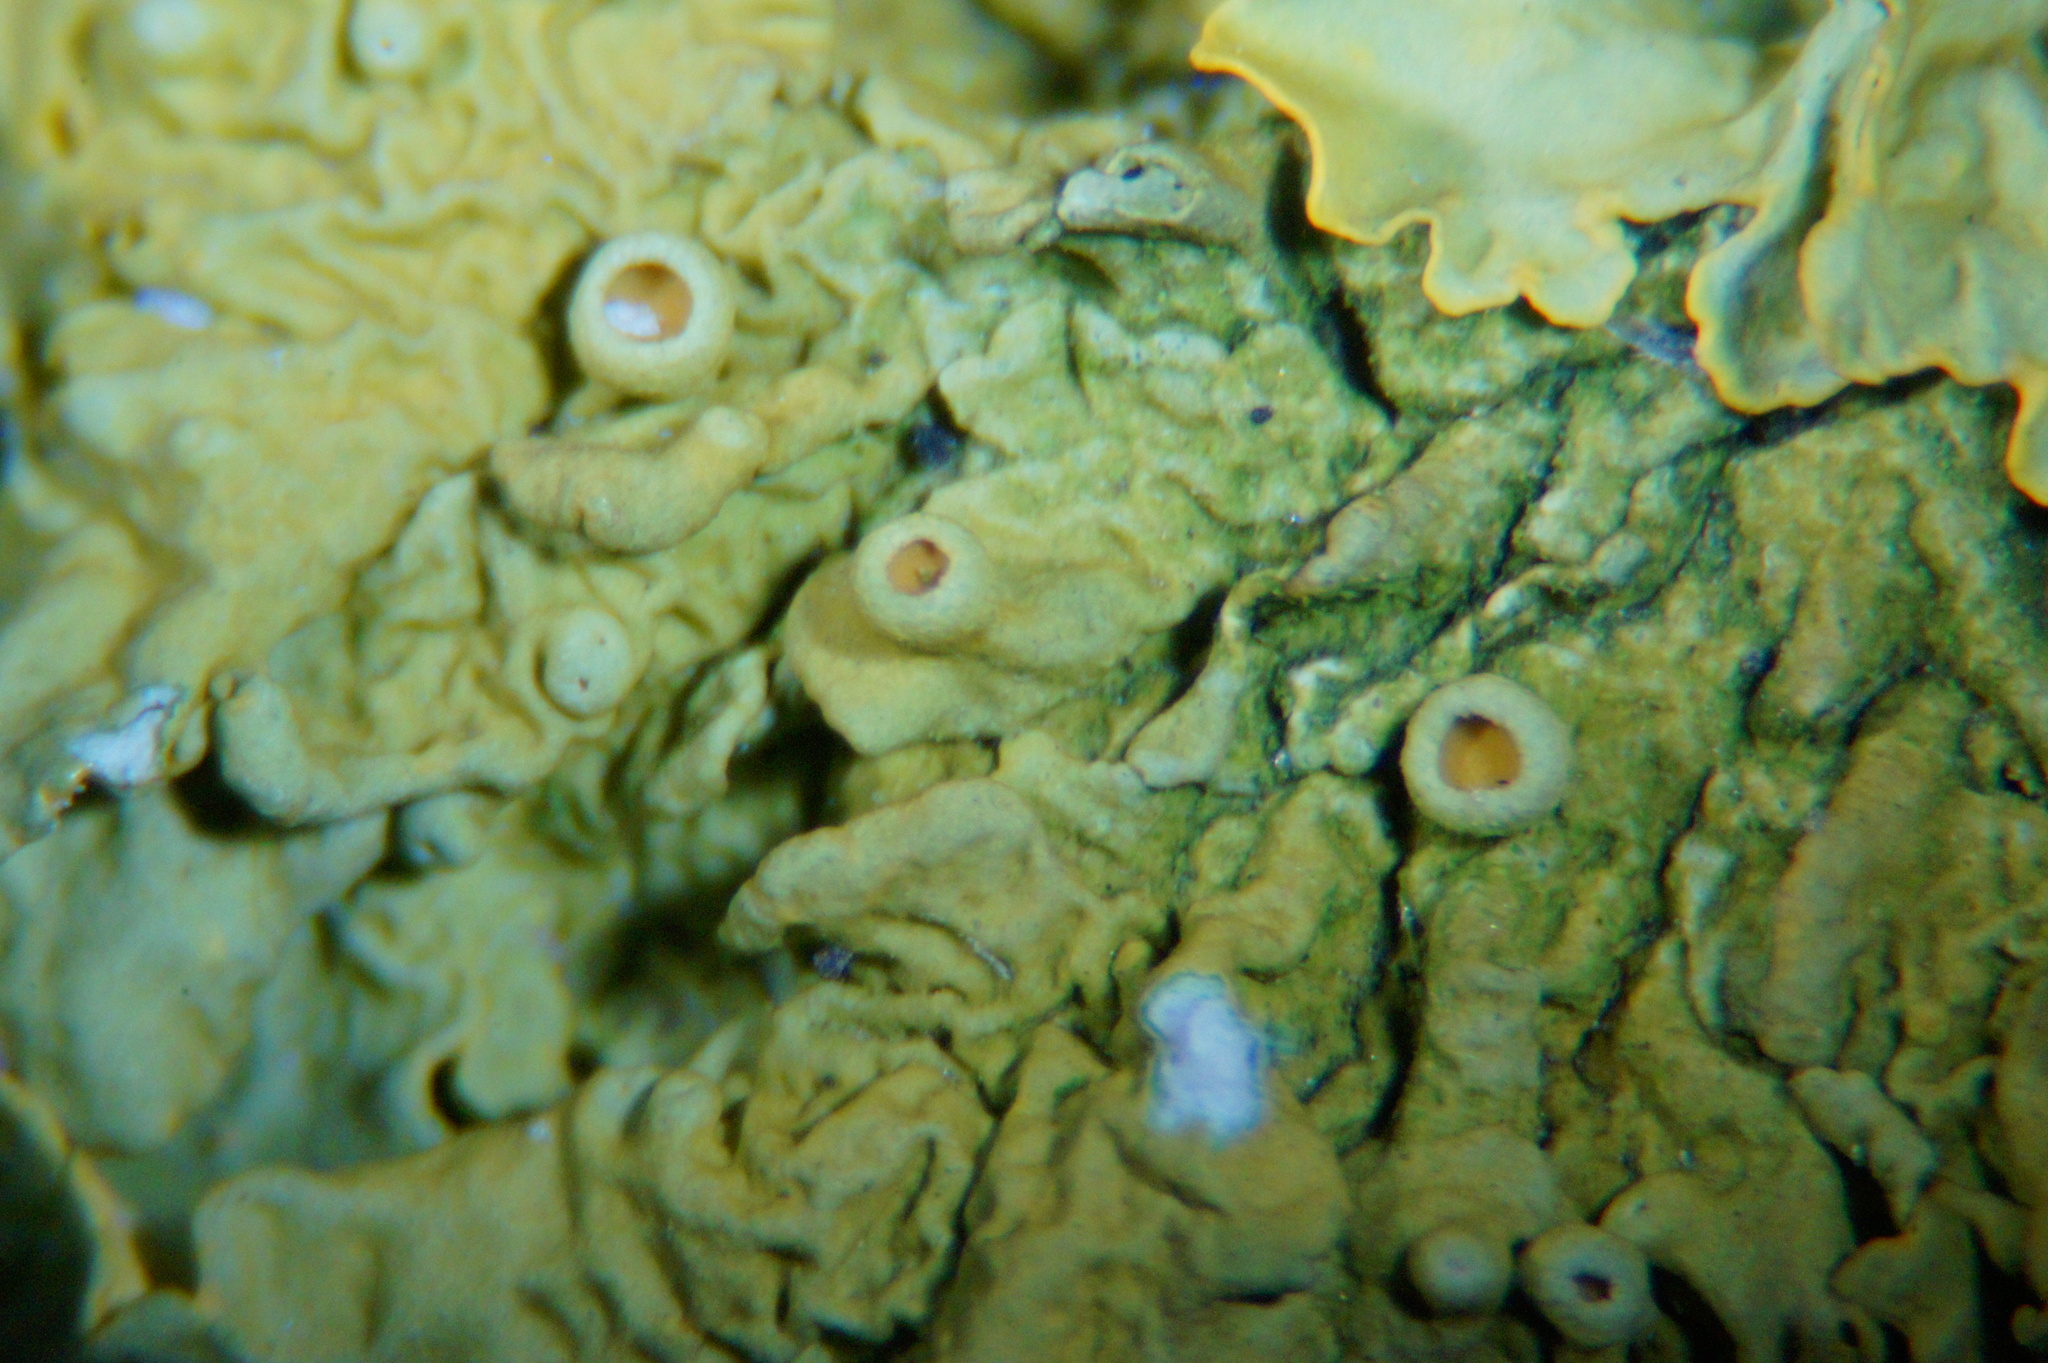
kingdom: Fungi
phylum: Ascomycota
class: Lecanoromycetes
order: Teloschistales
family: Teloschistaceae
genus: Xanthoria
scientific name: Xanthoria parietina
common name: Common orange lichen
